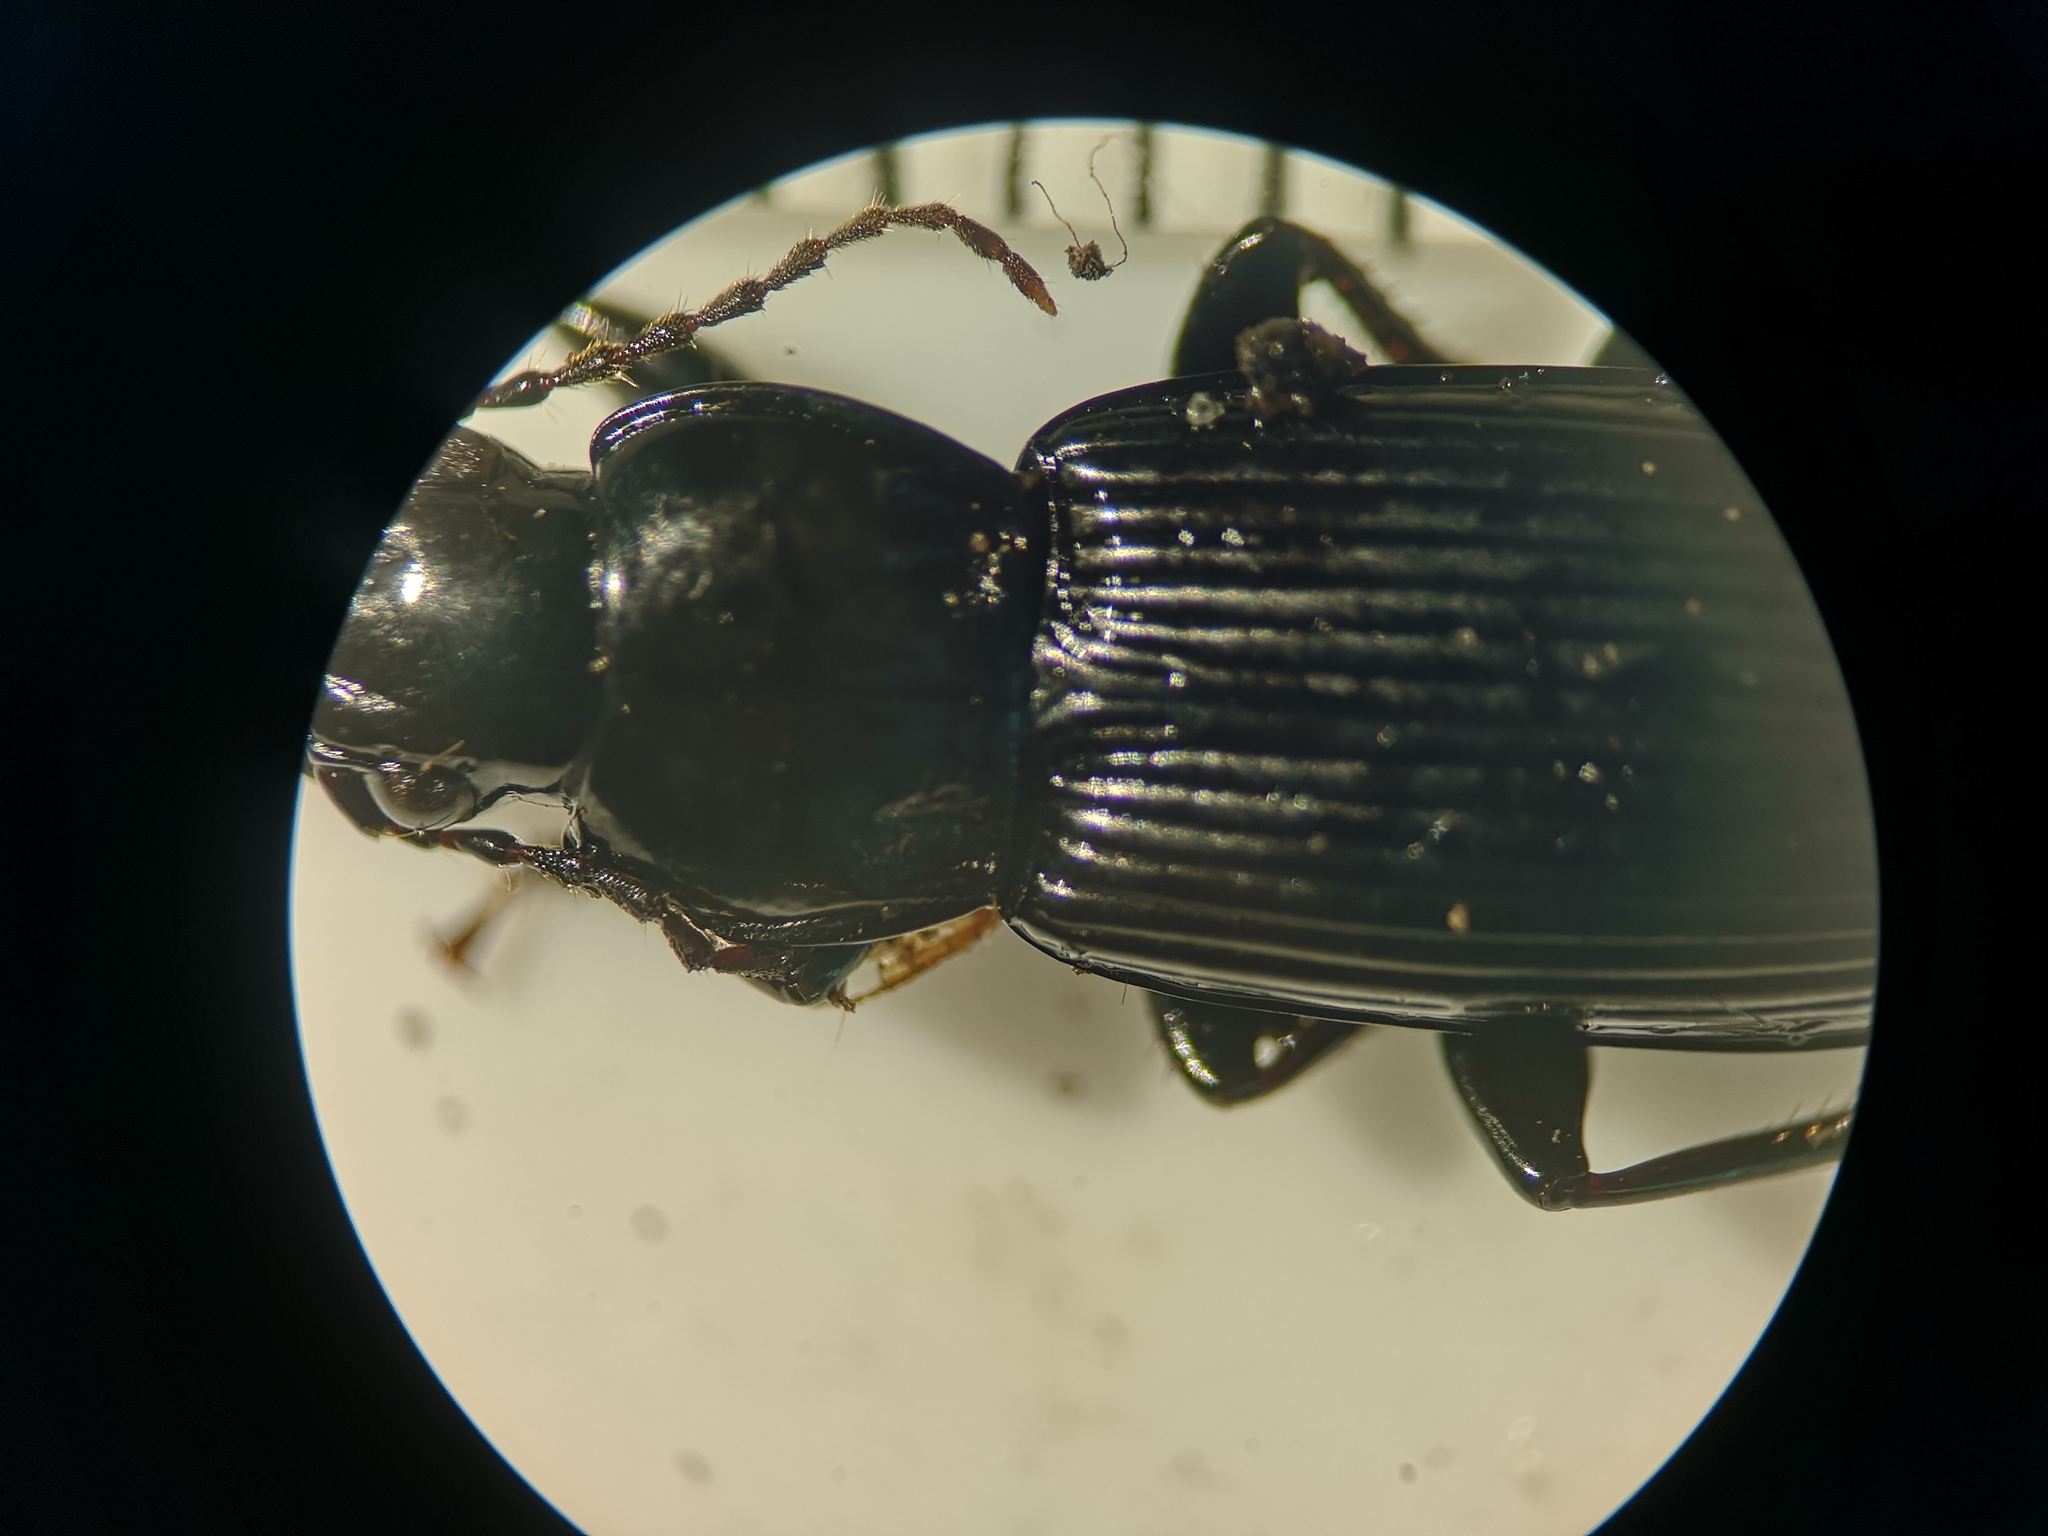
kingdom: Animalia
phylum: Arthropoda
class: Insecta
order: Coleoptera
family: Carabidae
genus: Pterostichus
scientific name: Pterostichus melanarius
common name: European dark harp ground beetle
